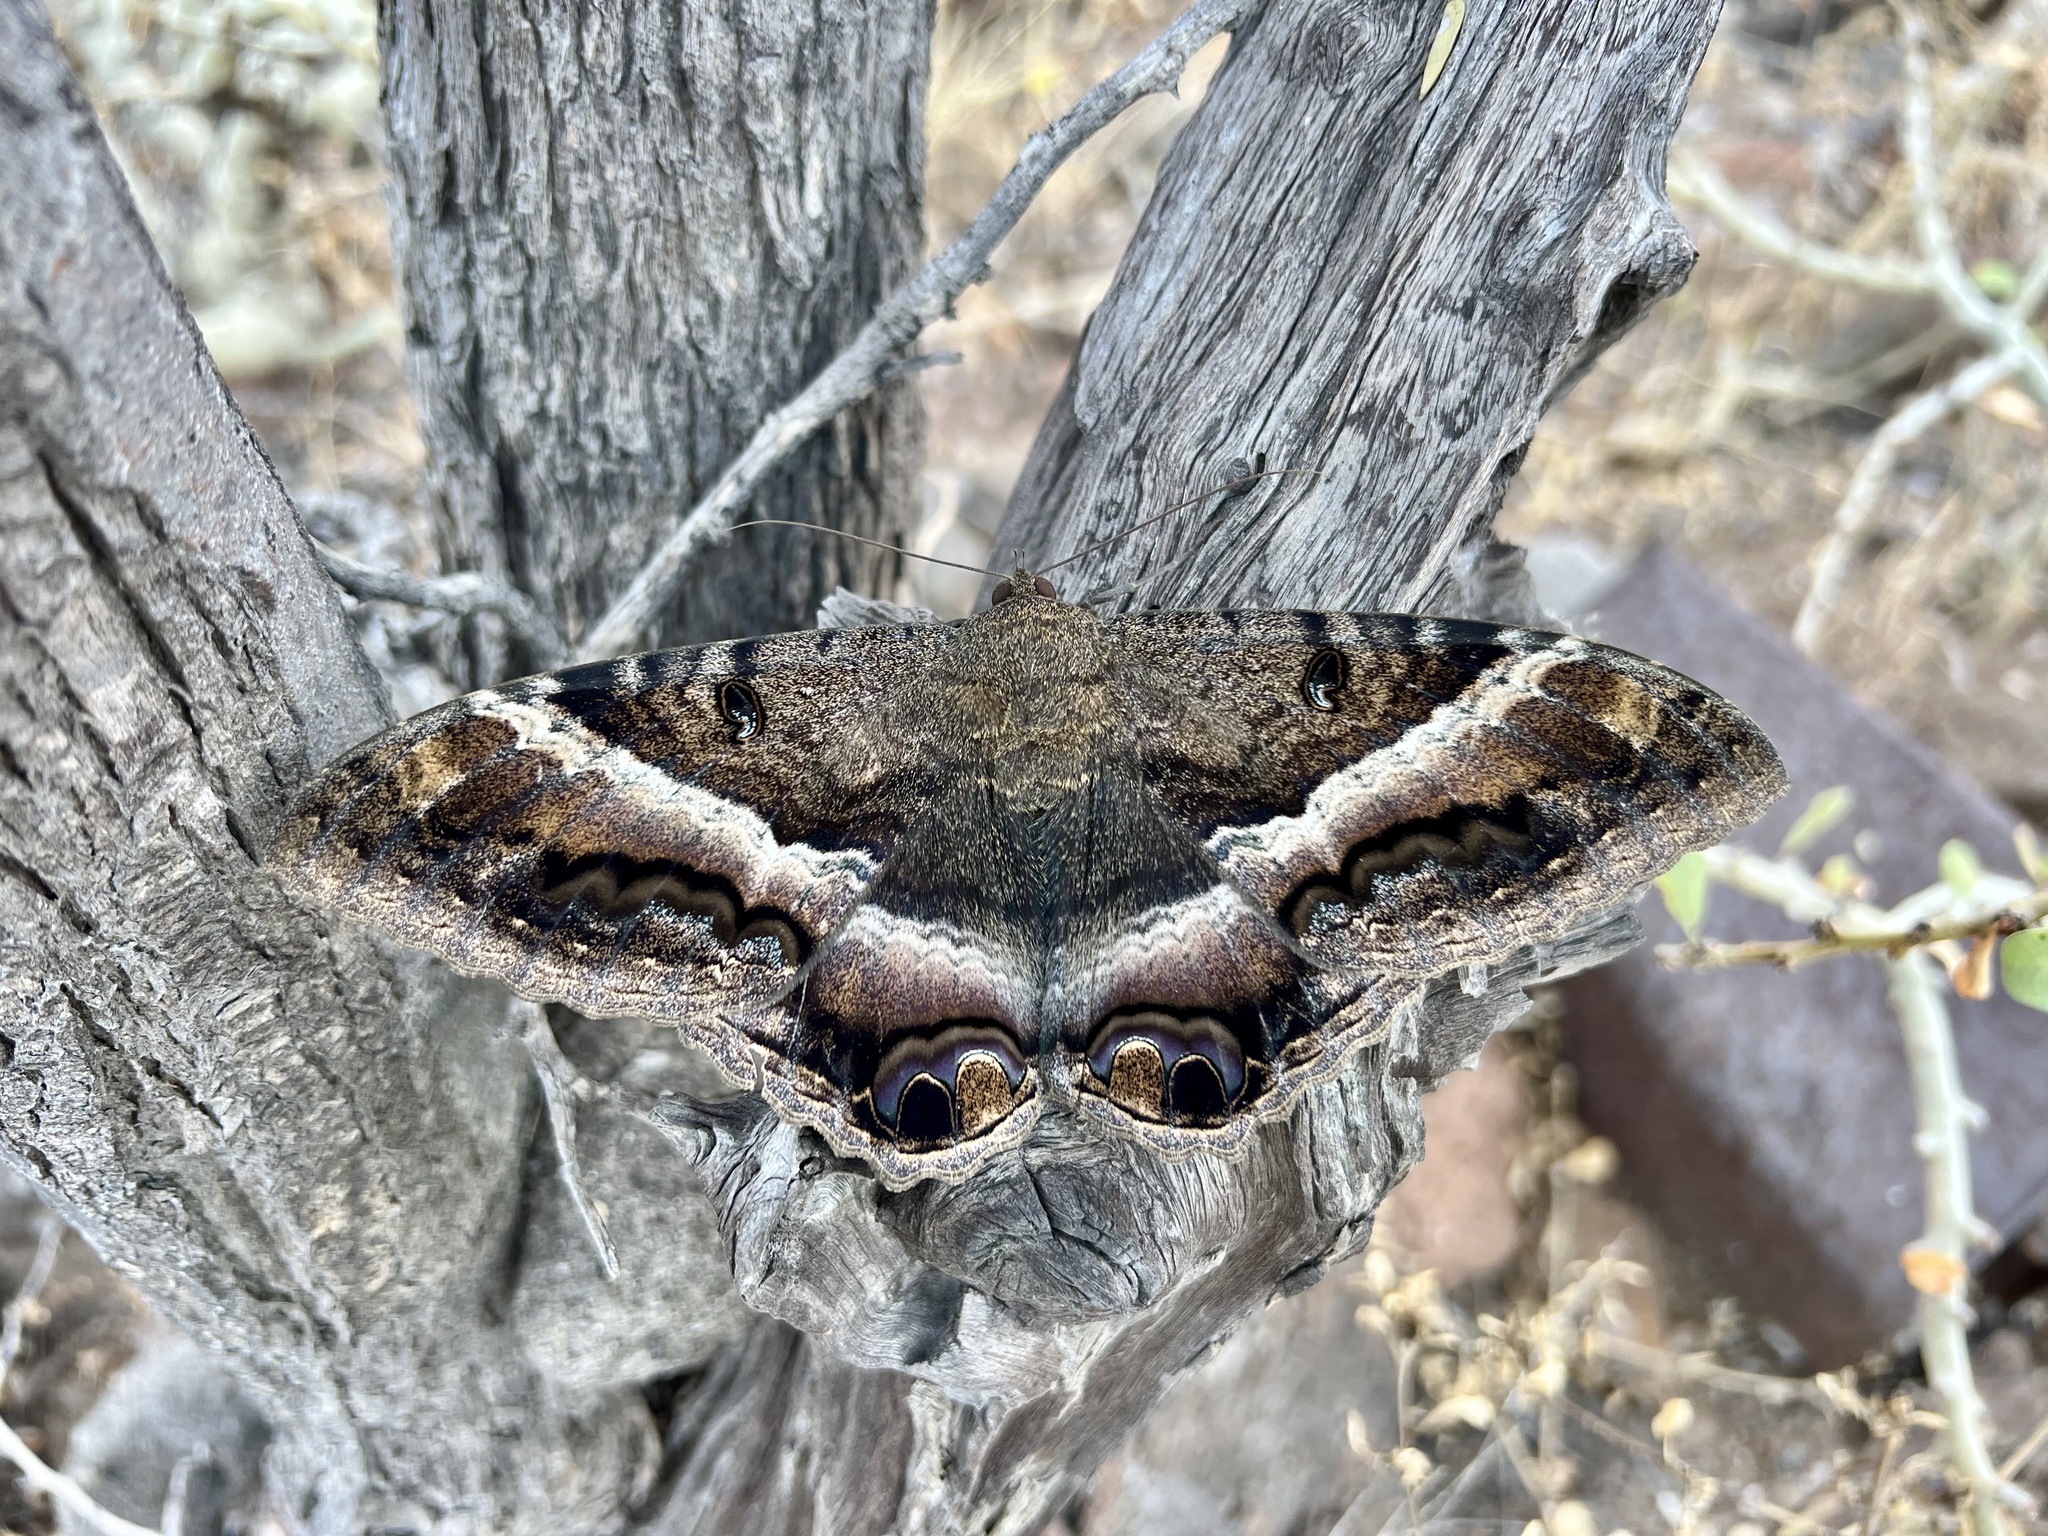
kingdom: Animalia
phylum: Arthropoda
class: Insecta
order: Lepidoptera
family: Erebidae
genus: Ascalapha
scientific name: Ascalapha odorata
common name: Black witch
